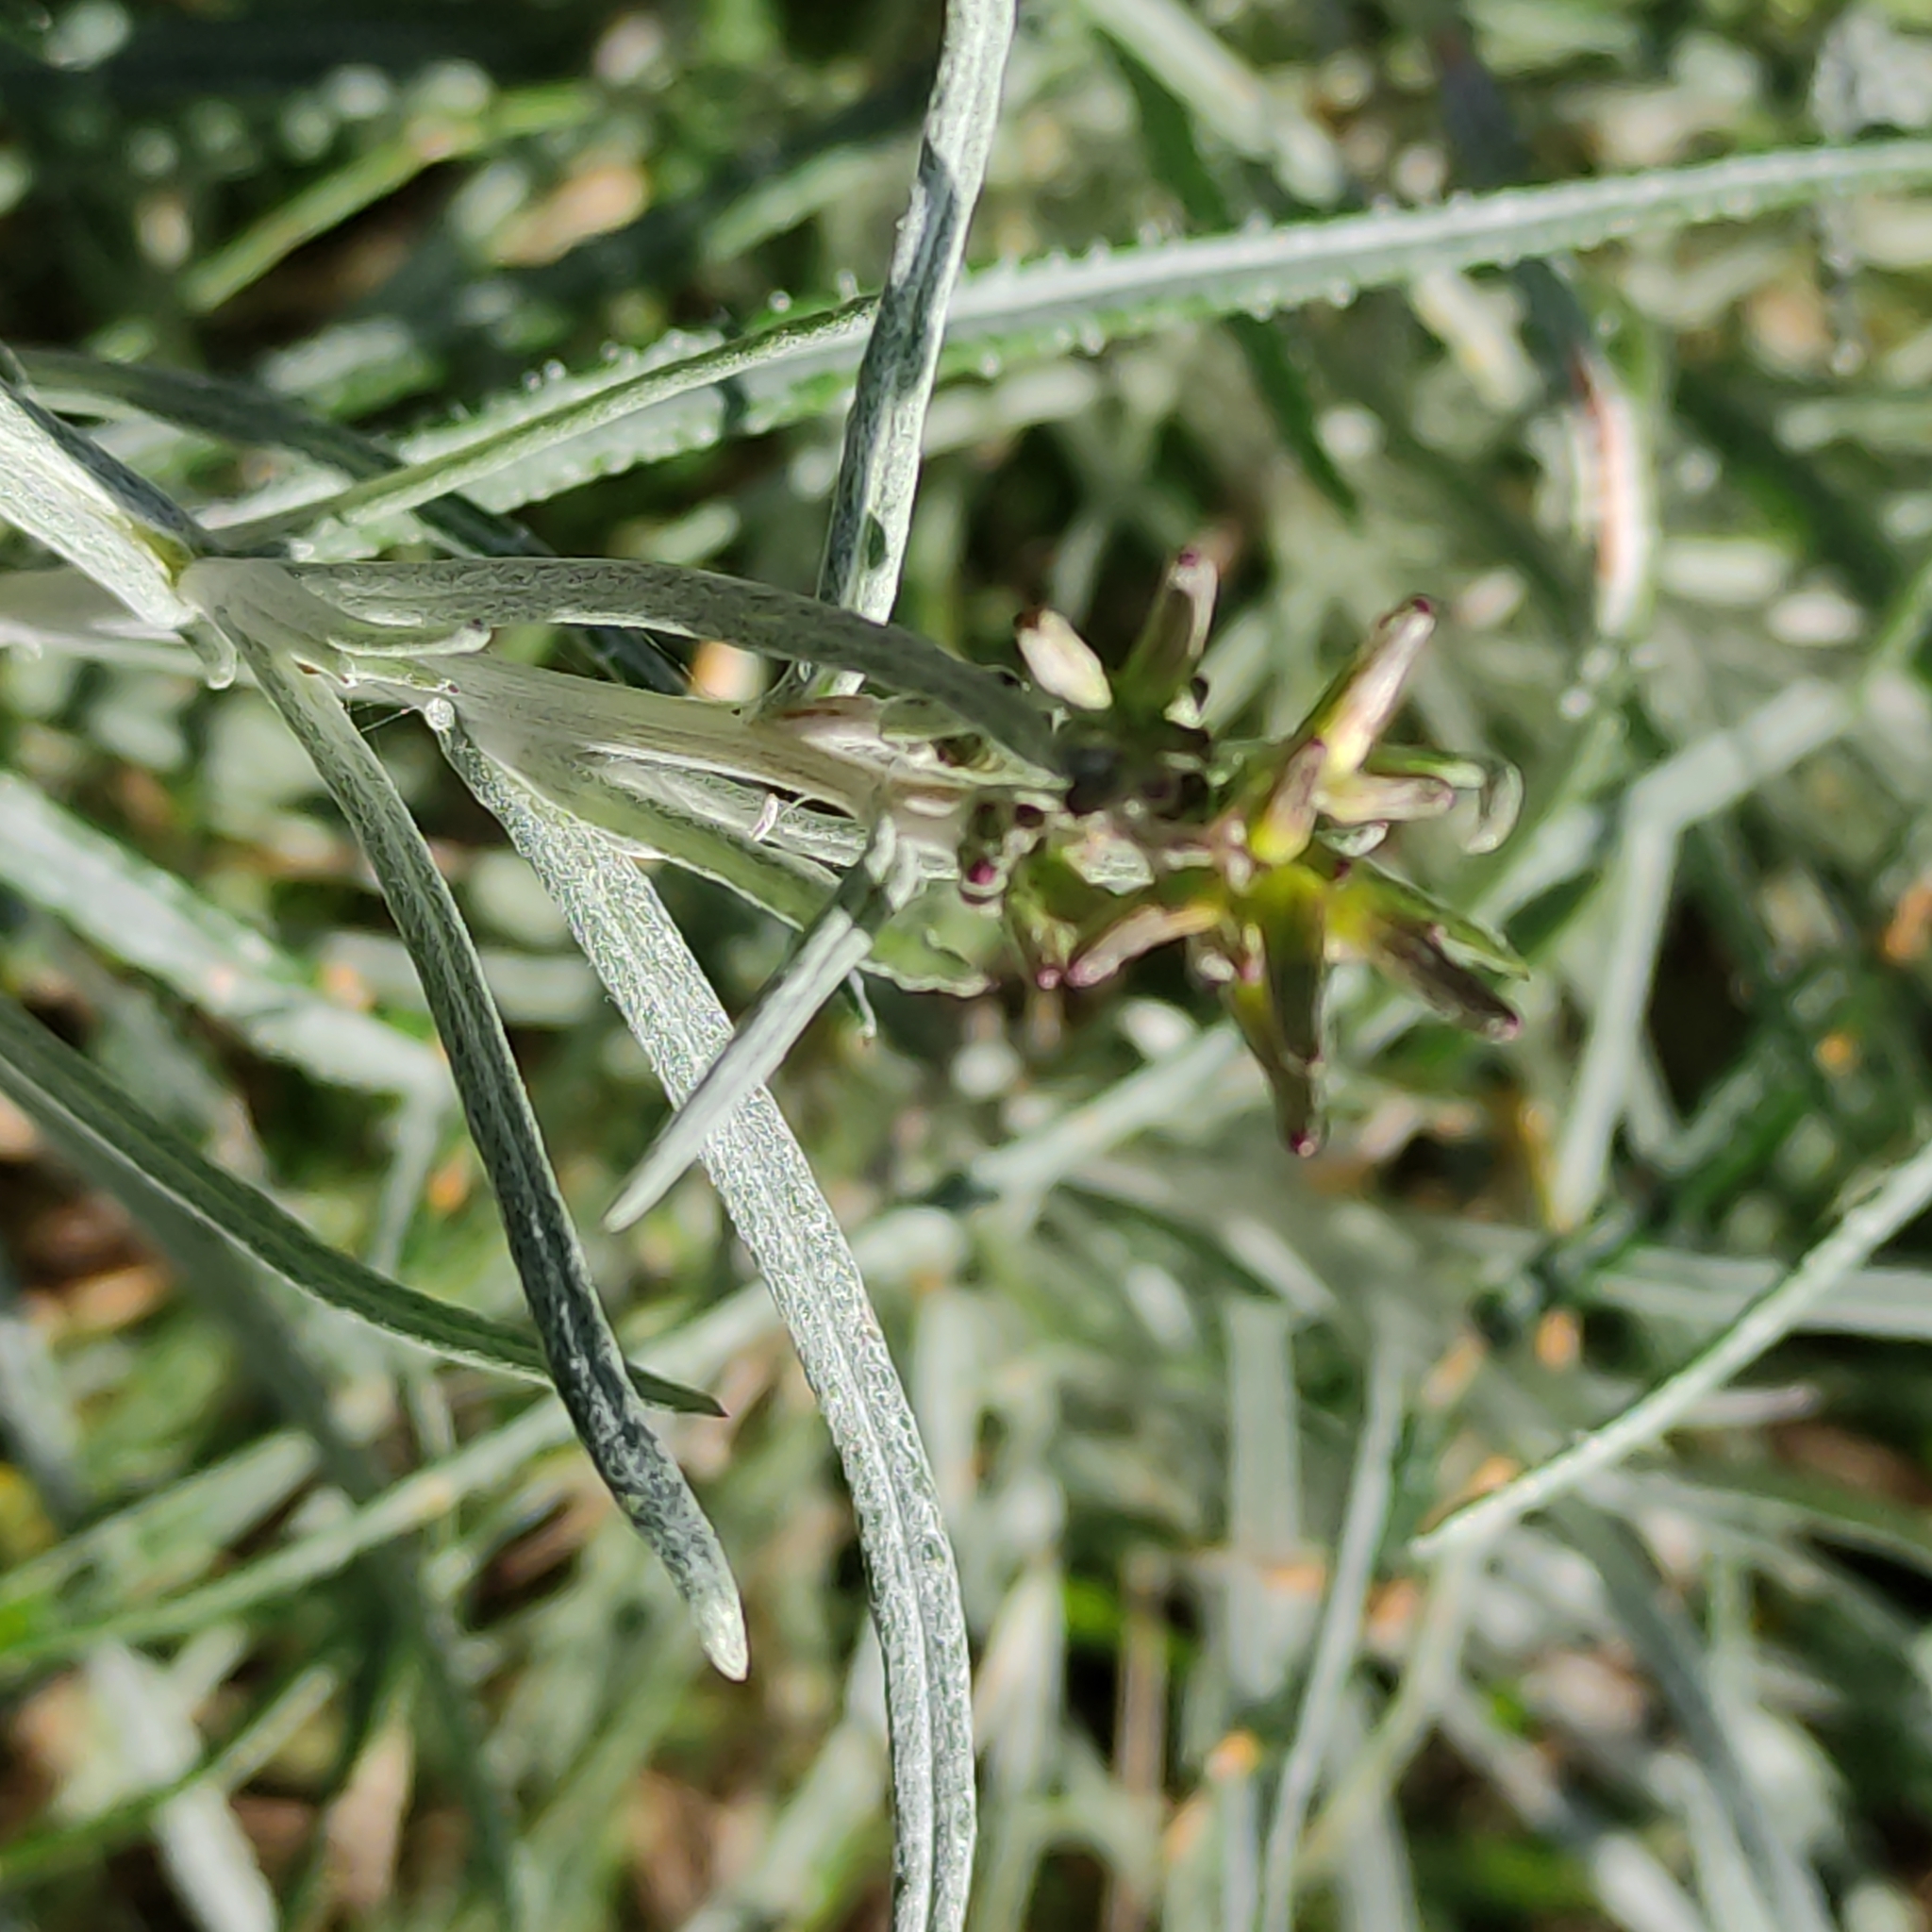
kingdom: Plantae
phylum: Tracheophyta
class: Magnoliopsida
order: Asterales
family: Asteraceae
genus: Senecio
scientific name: Senecio quadridentatus
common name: Cotton fireweed
